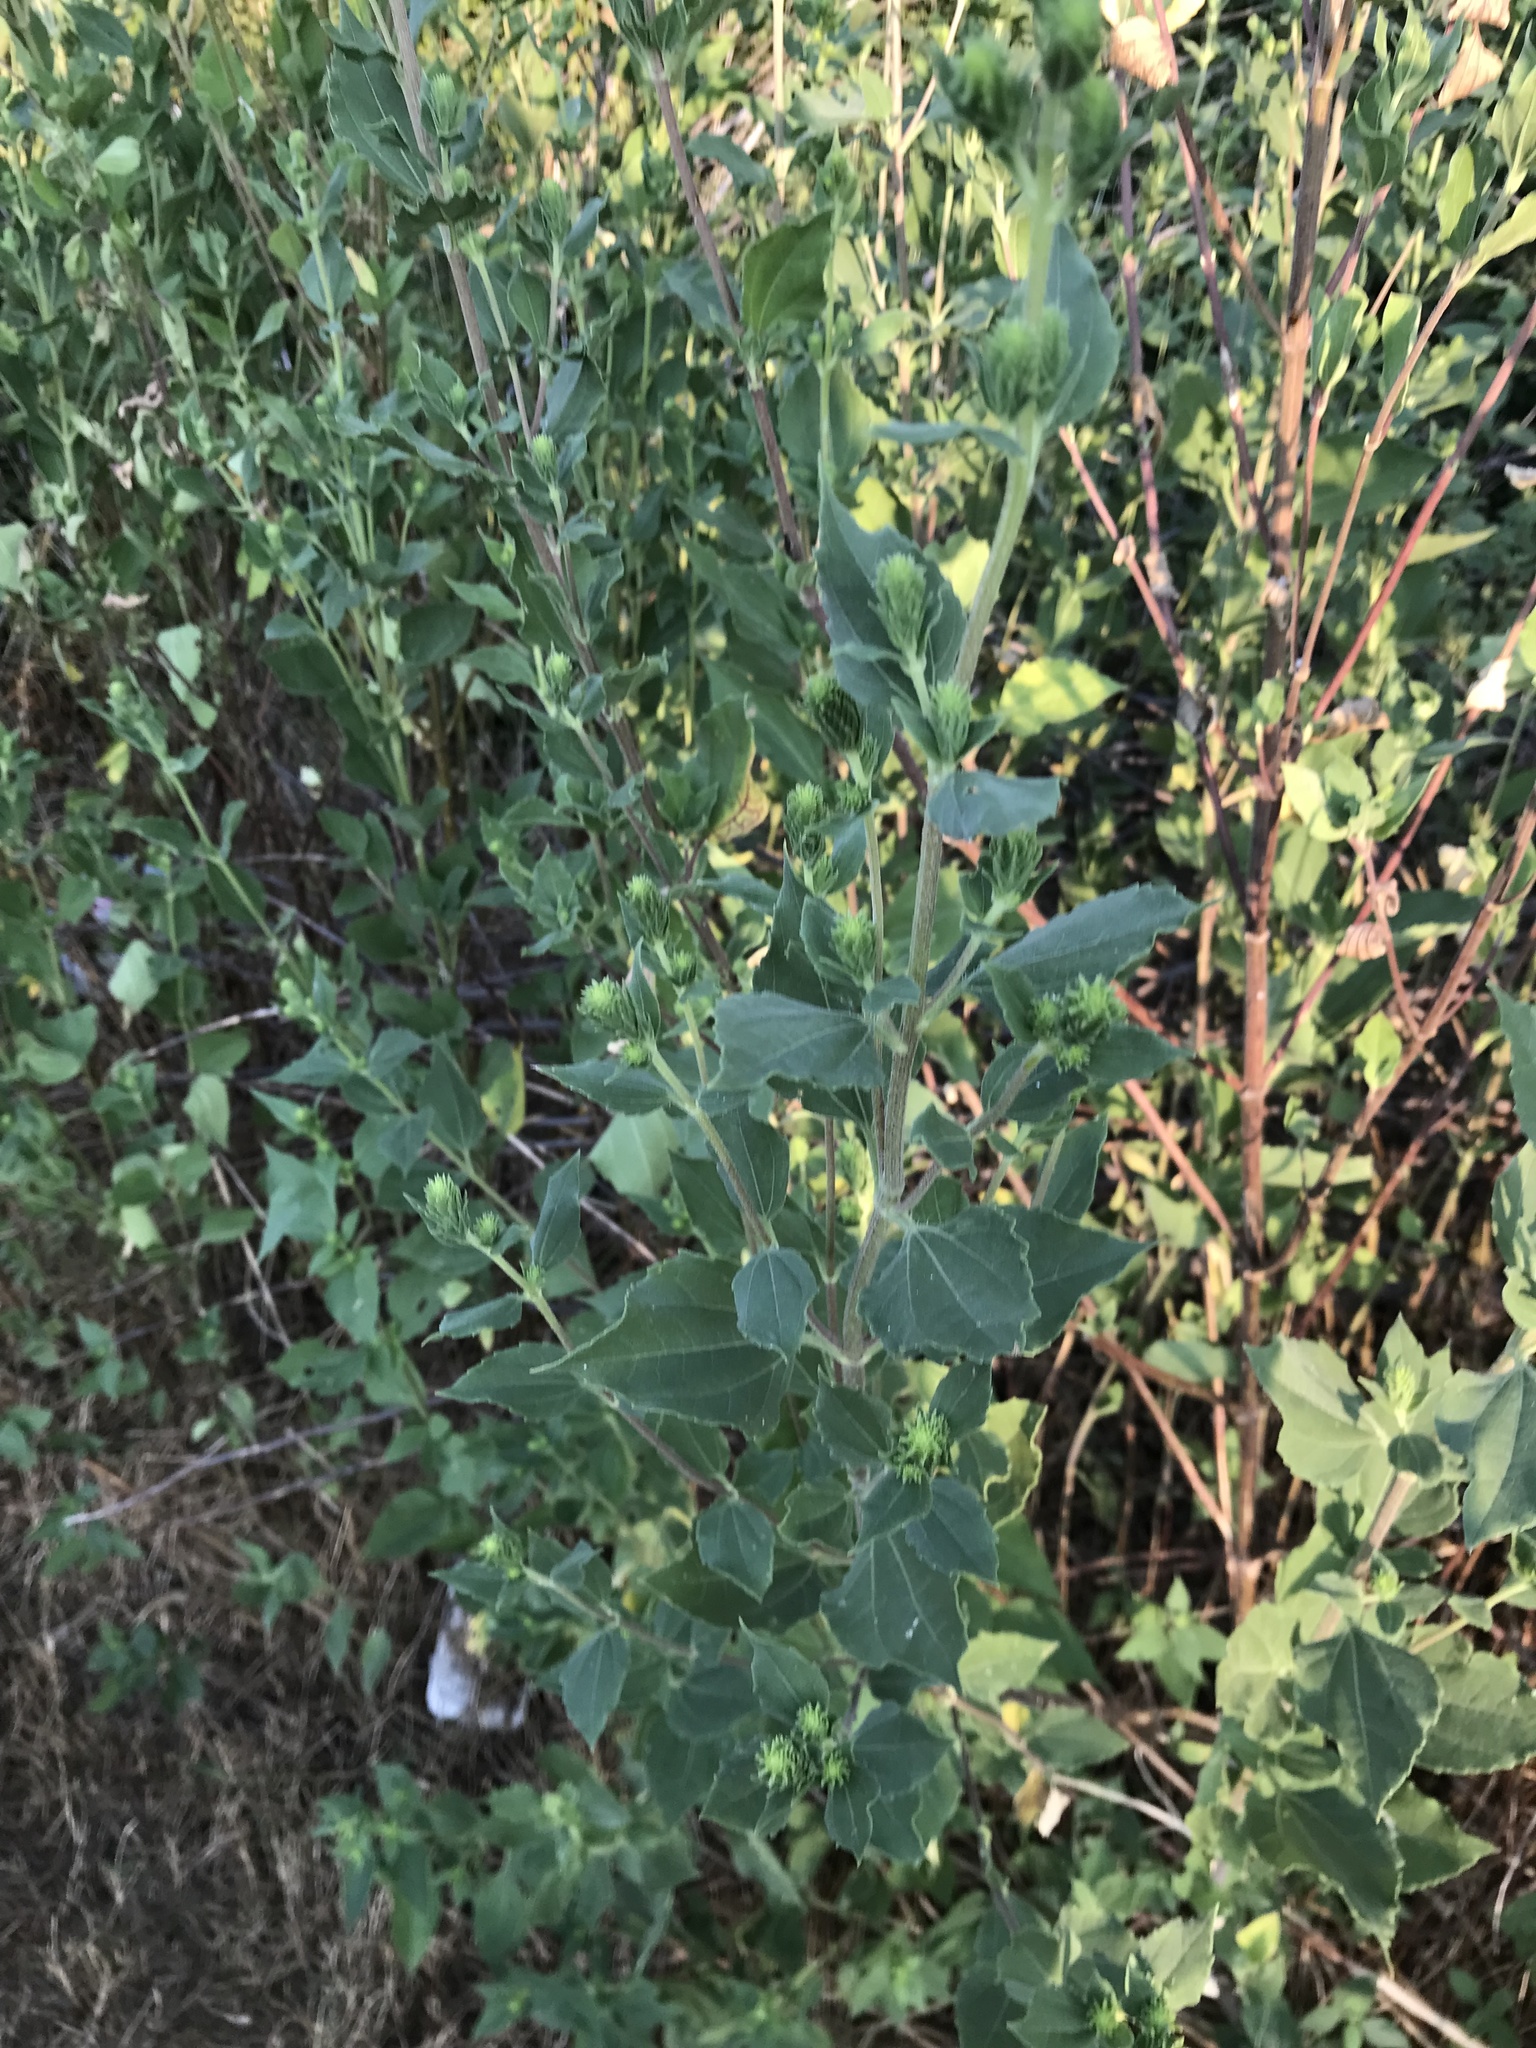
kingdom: Plantae
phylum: Tracheophyta
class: Magnoliopsida
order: Asterales
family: Asteraceae
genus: Iva
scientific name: Iva annua
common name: Marsh-elder
